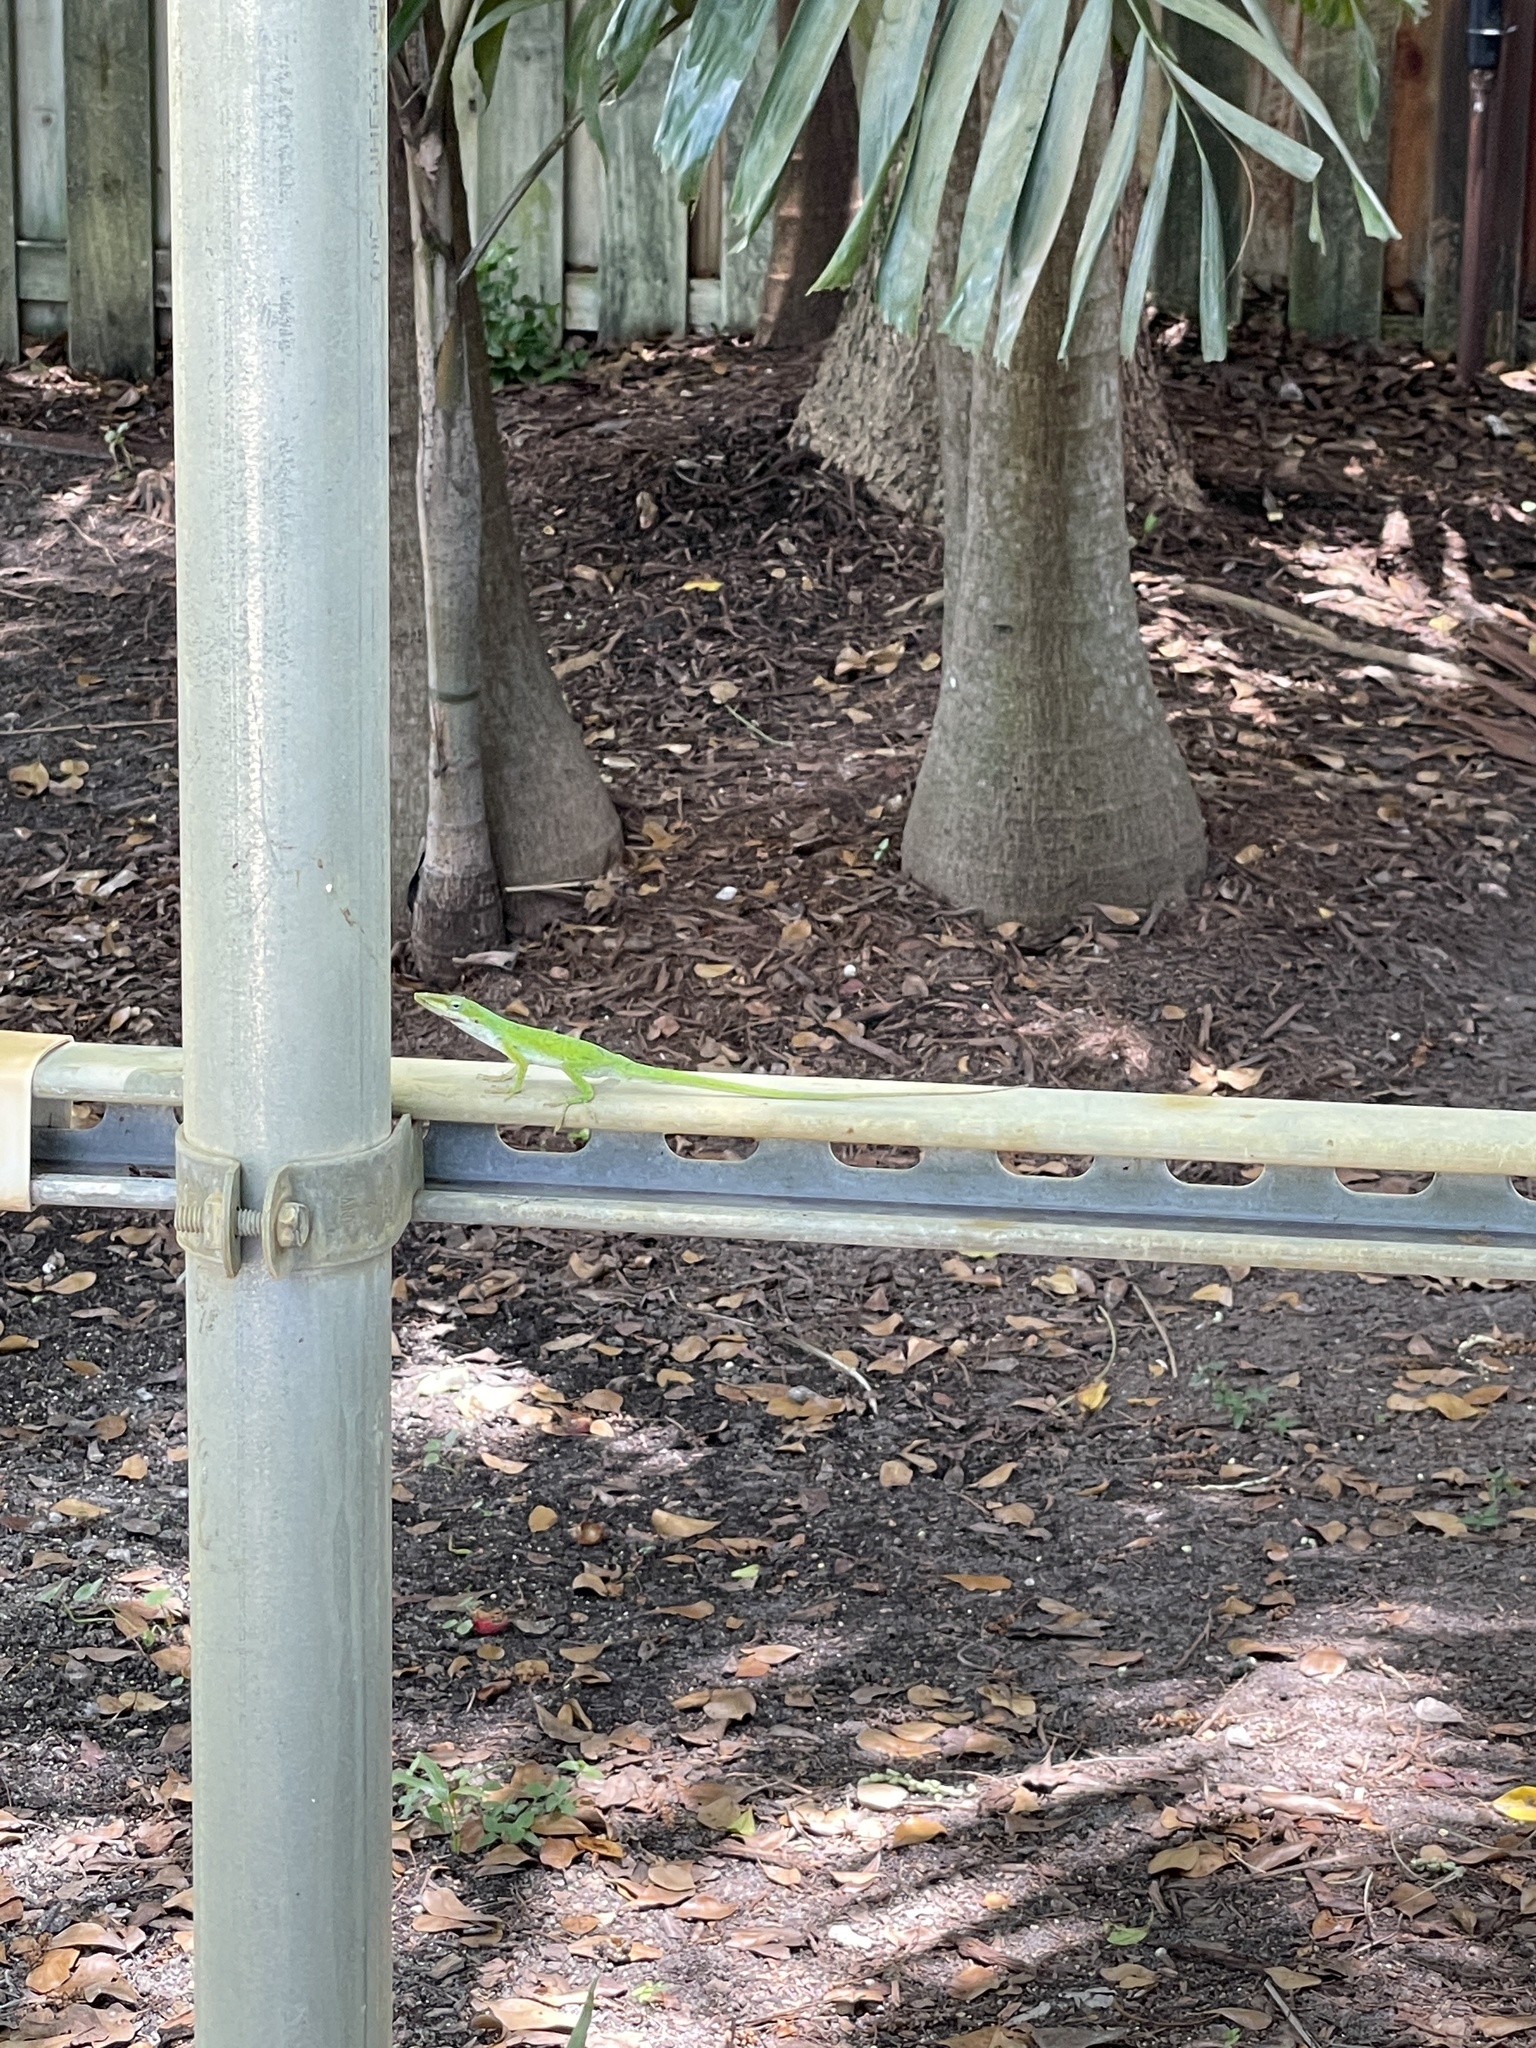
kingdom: Animalia
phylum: Chordata
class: Squamata
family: Dactyloidae
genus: Anolis
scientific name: Anolis carolinensis
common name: Green anole
